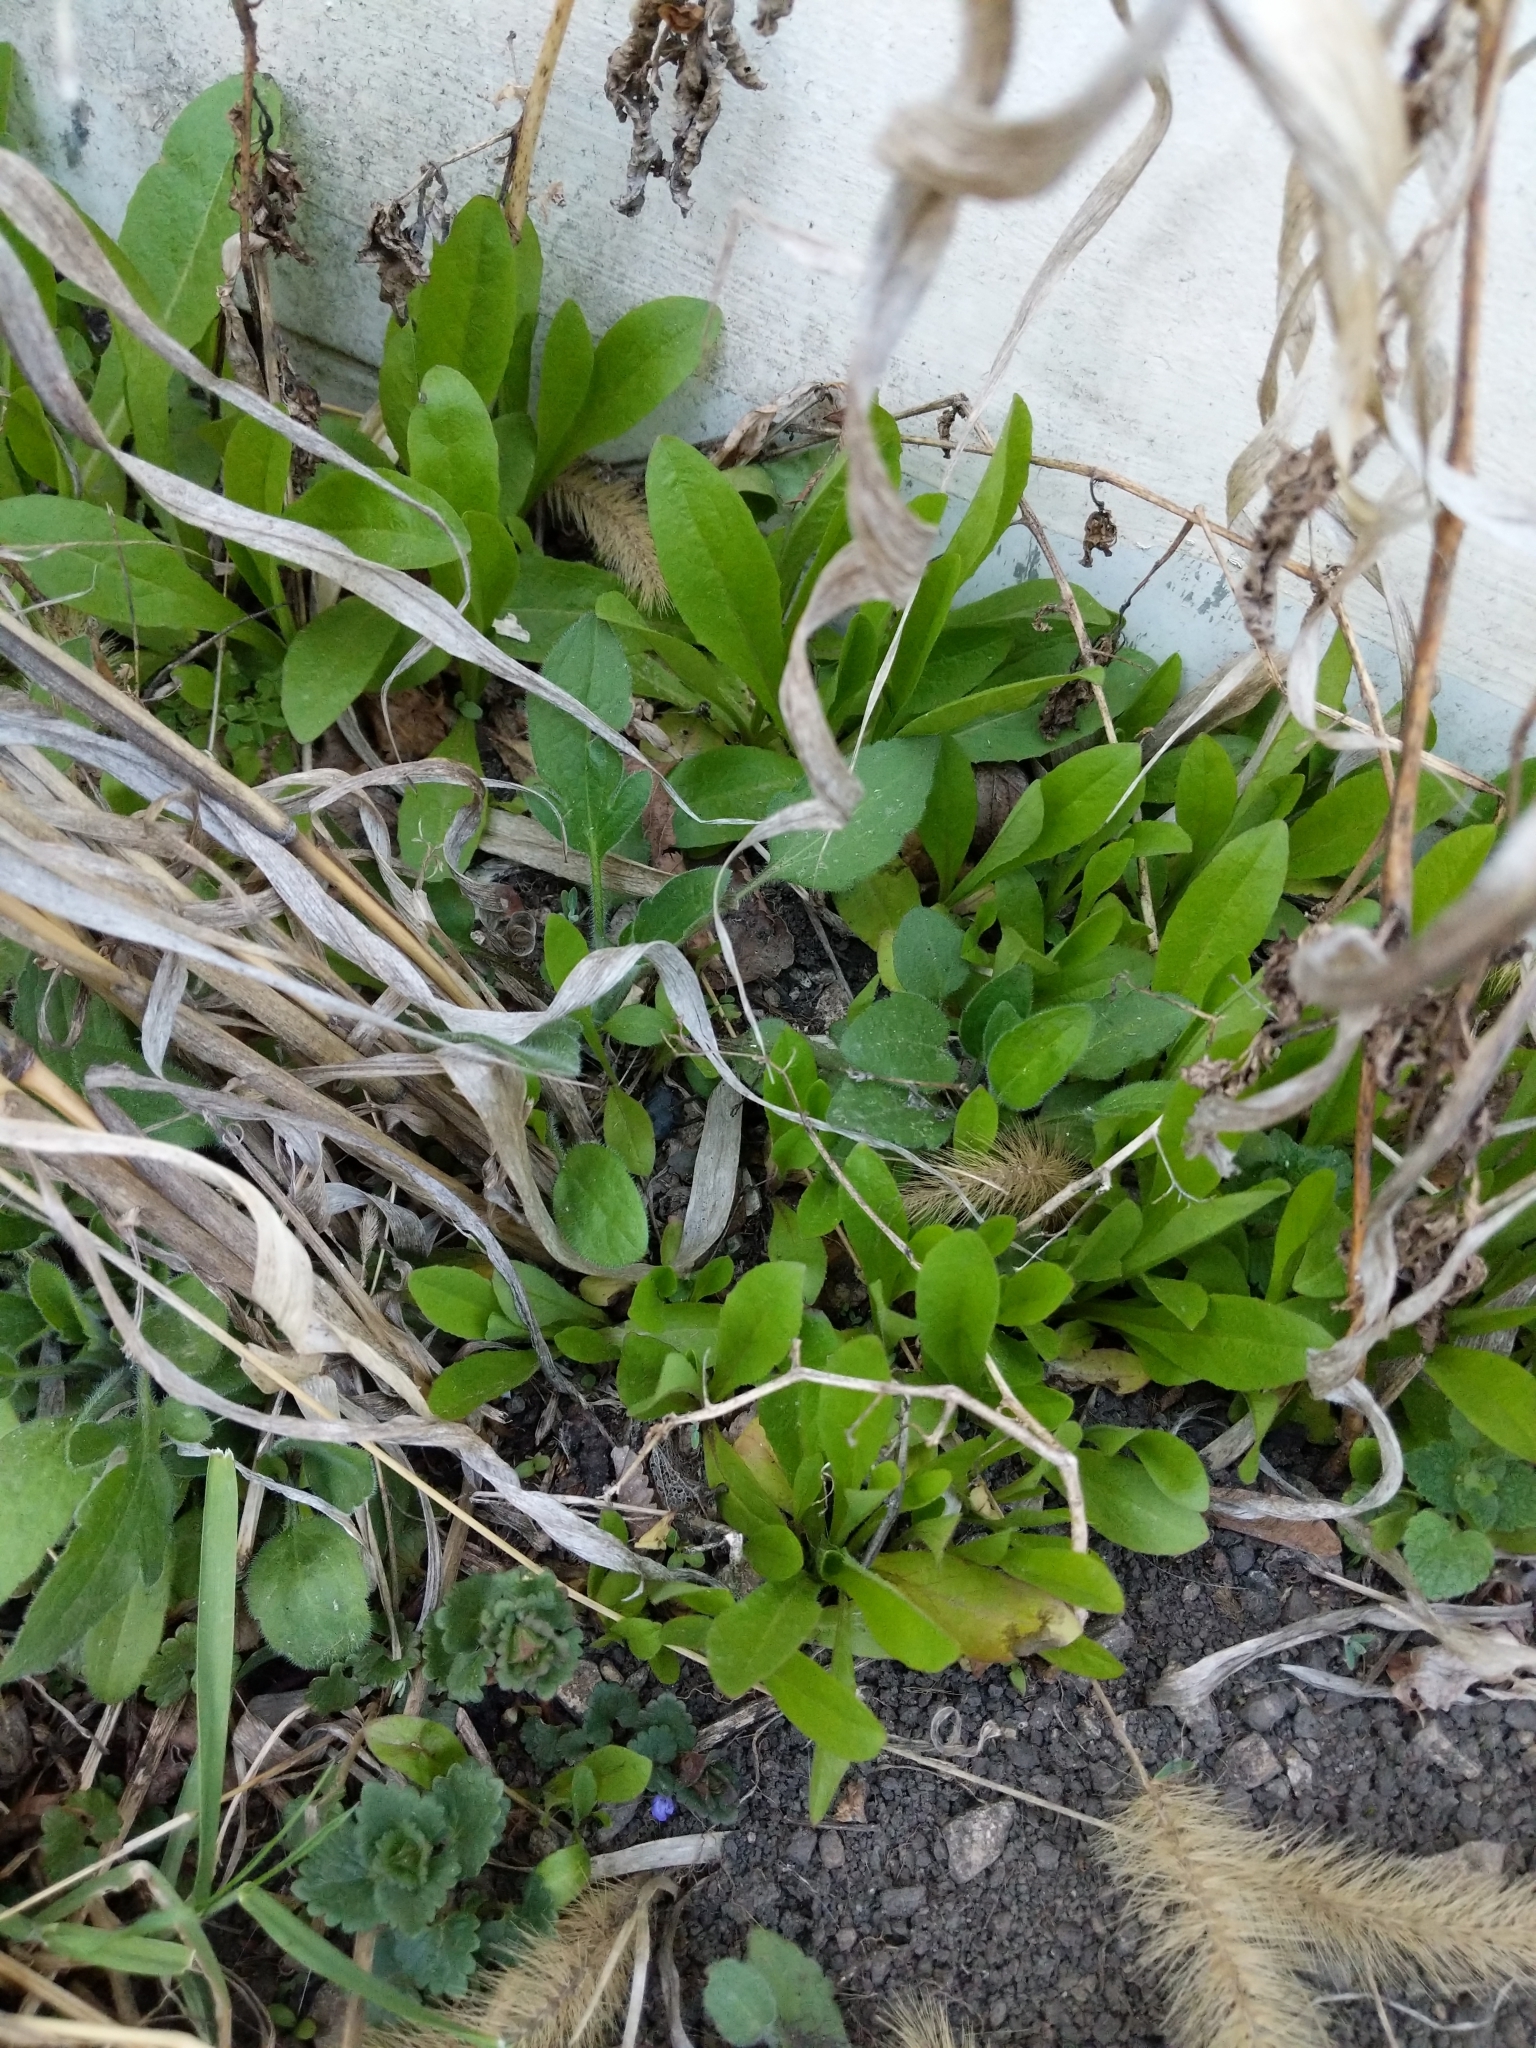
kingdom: Plantae
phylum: Tracheophyta
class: Magnoliopsida
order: Asterales
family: Asteraceae
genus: Lactuca
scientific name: Lactuca serriola
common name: Prickly lettuce
